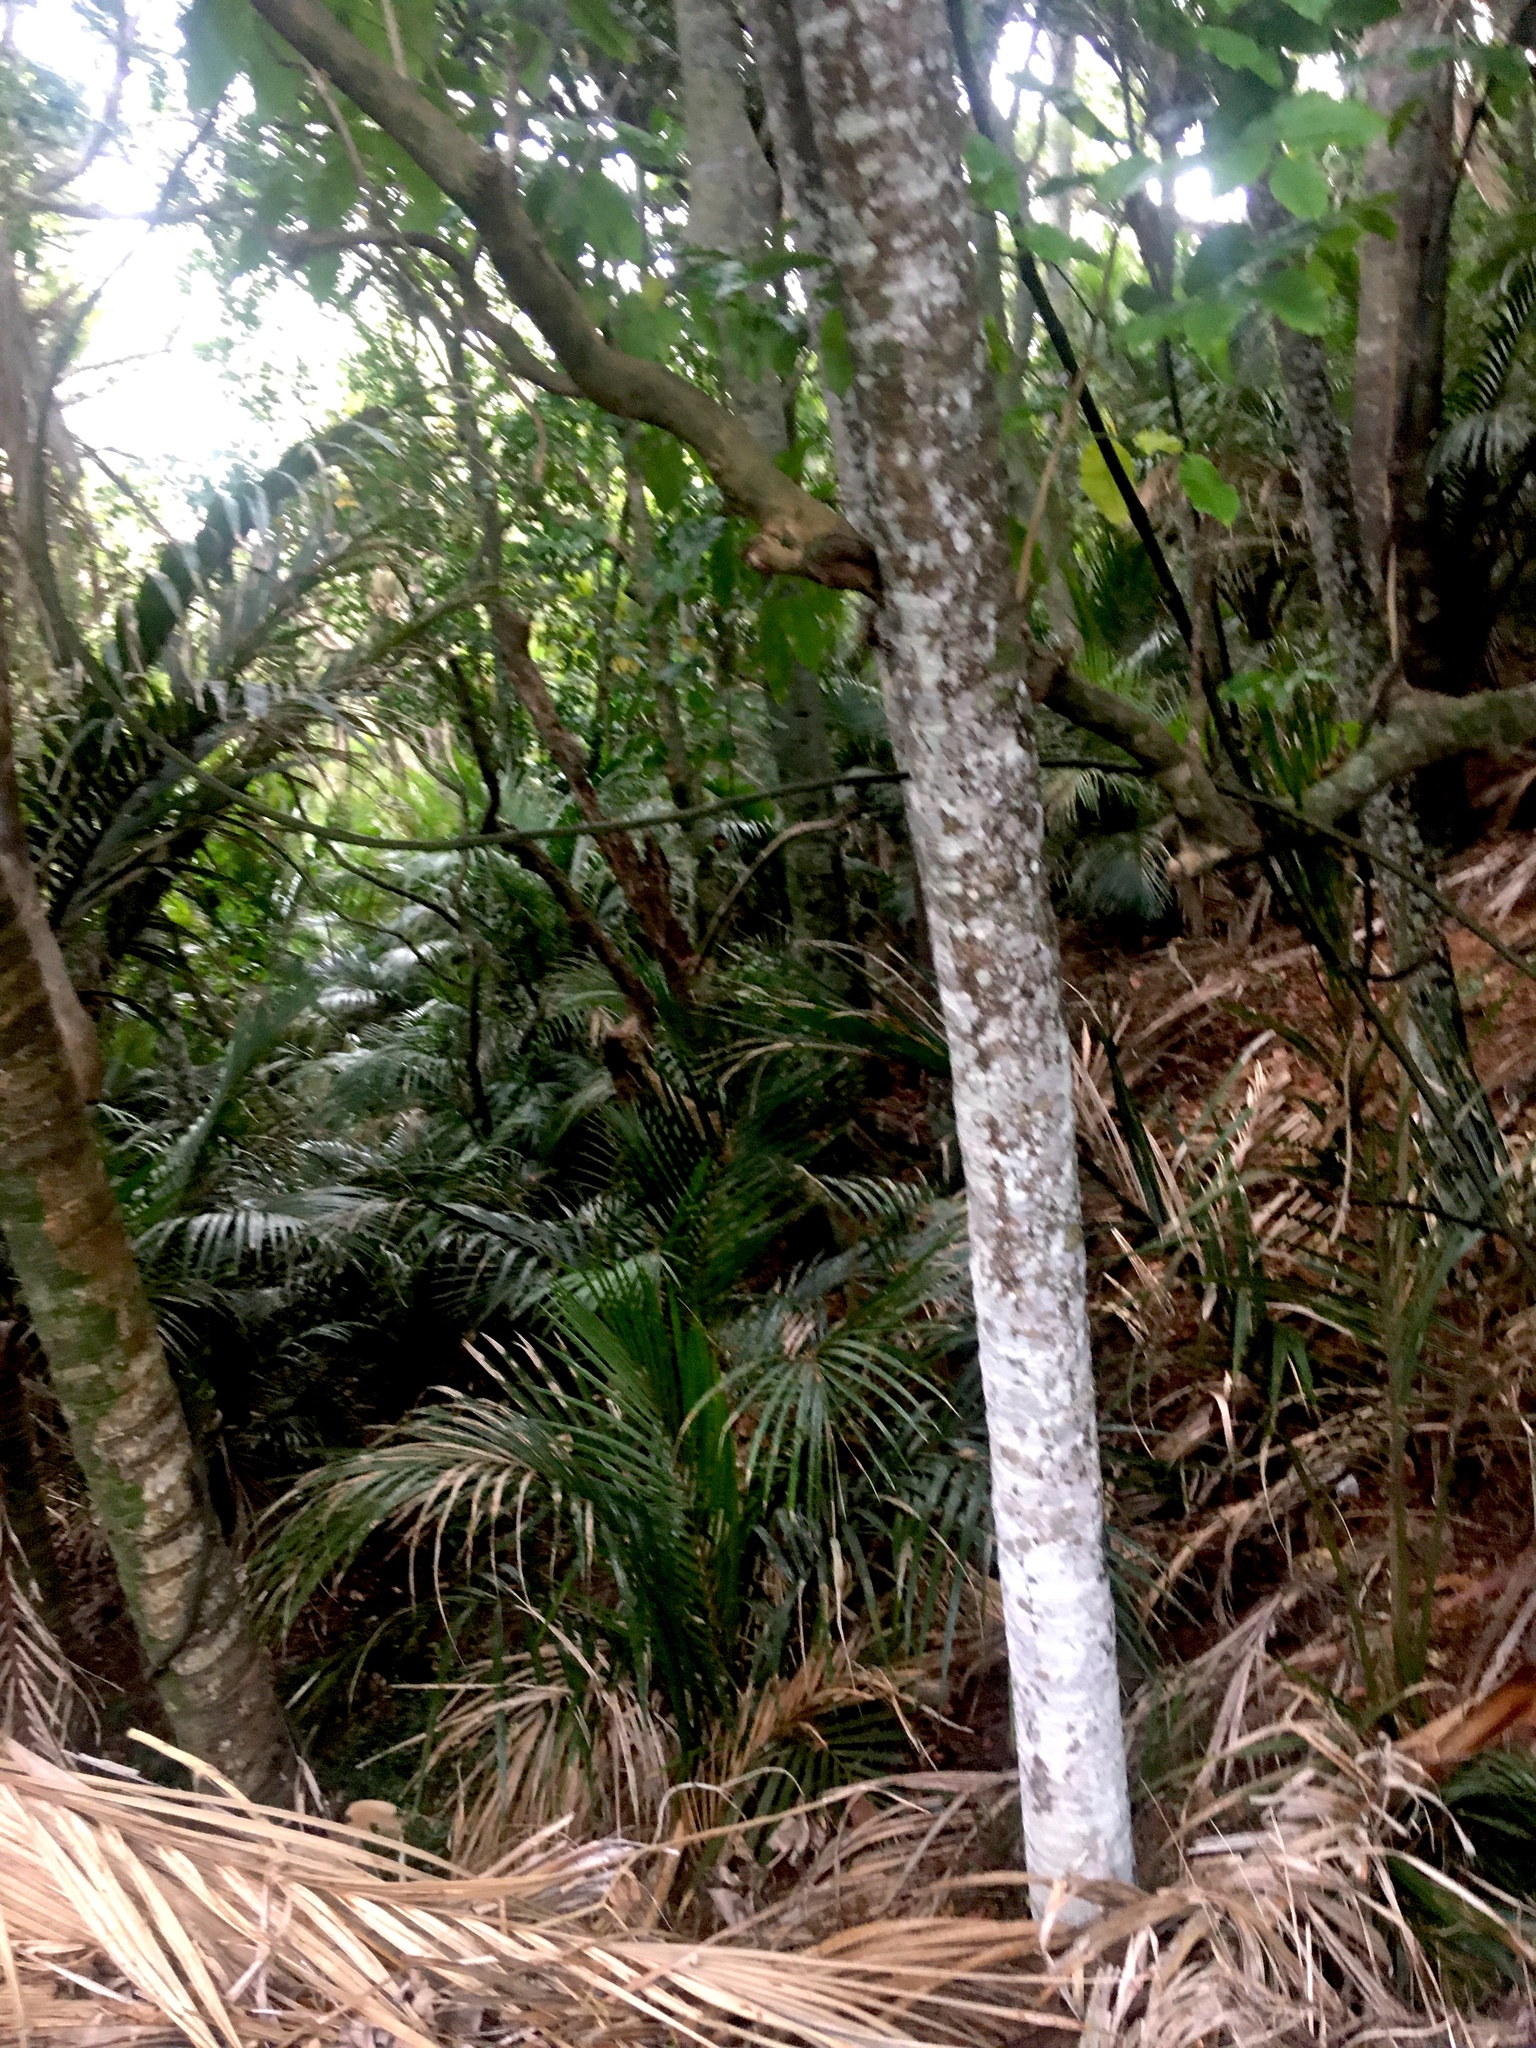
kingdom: Plantae
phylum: Tracheophyta
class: Liliopsida
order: Arecales
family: Arecaceae
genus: Rhopalostylis
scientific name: Rhopalostylis sapida
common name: Feather-duster palm
